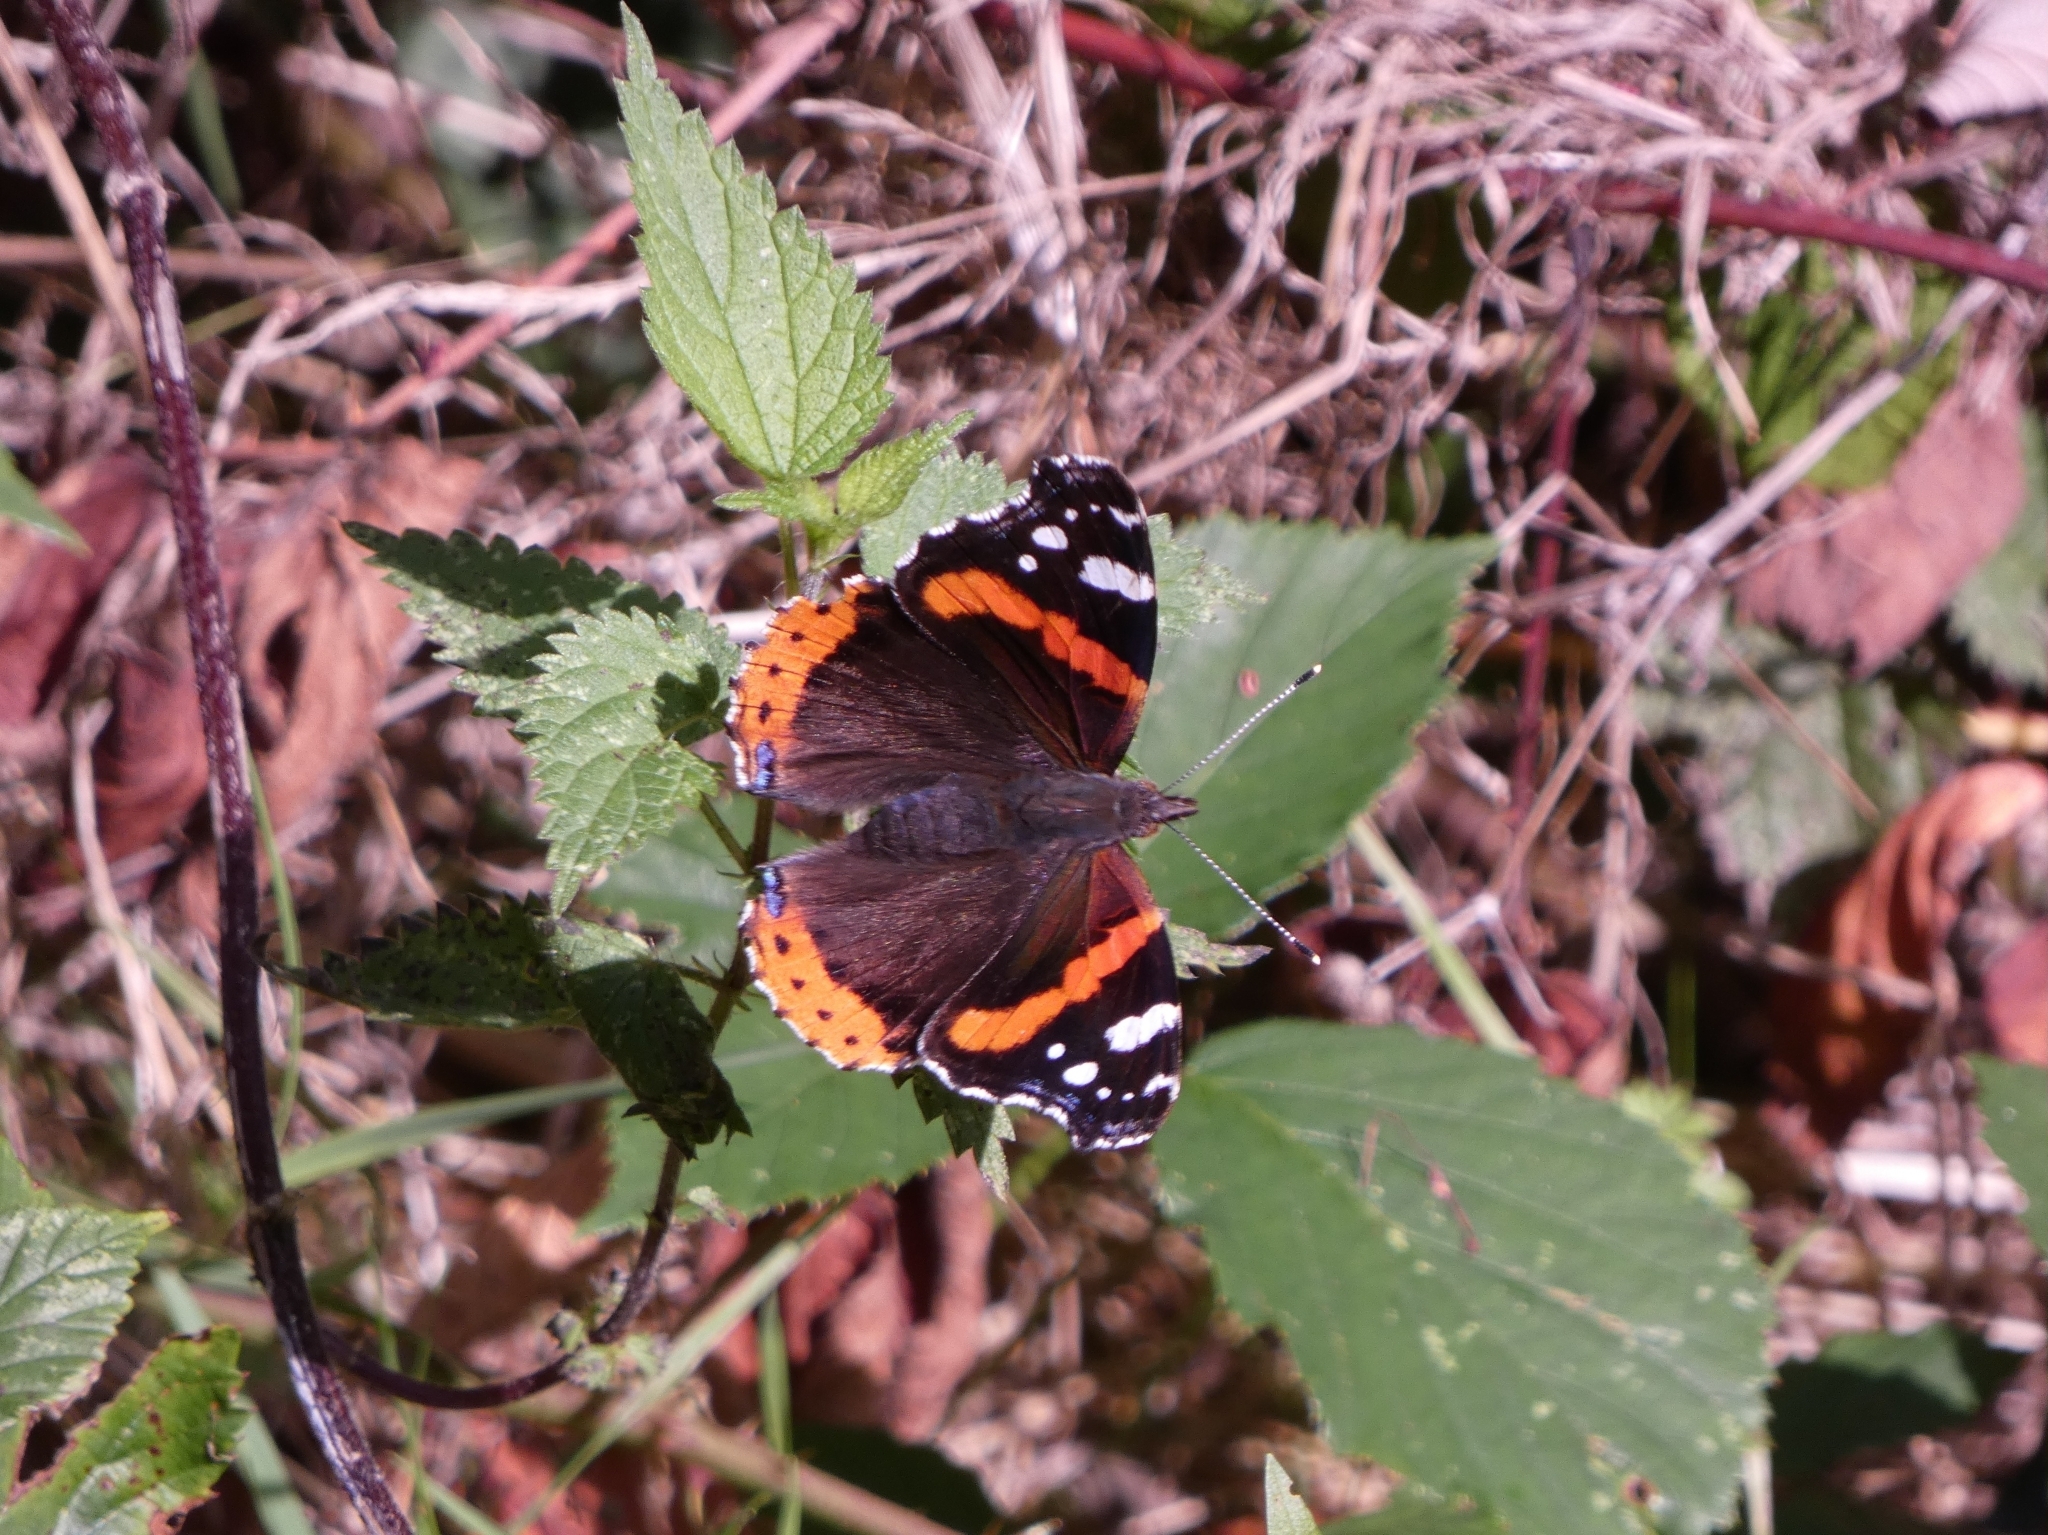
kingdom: Animalia
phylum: Arthropoda
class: Insecta
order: Lepidoptera
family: Nymphalidae
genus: Vanessa
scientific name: Vanessa atalanta
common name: Red admiral
